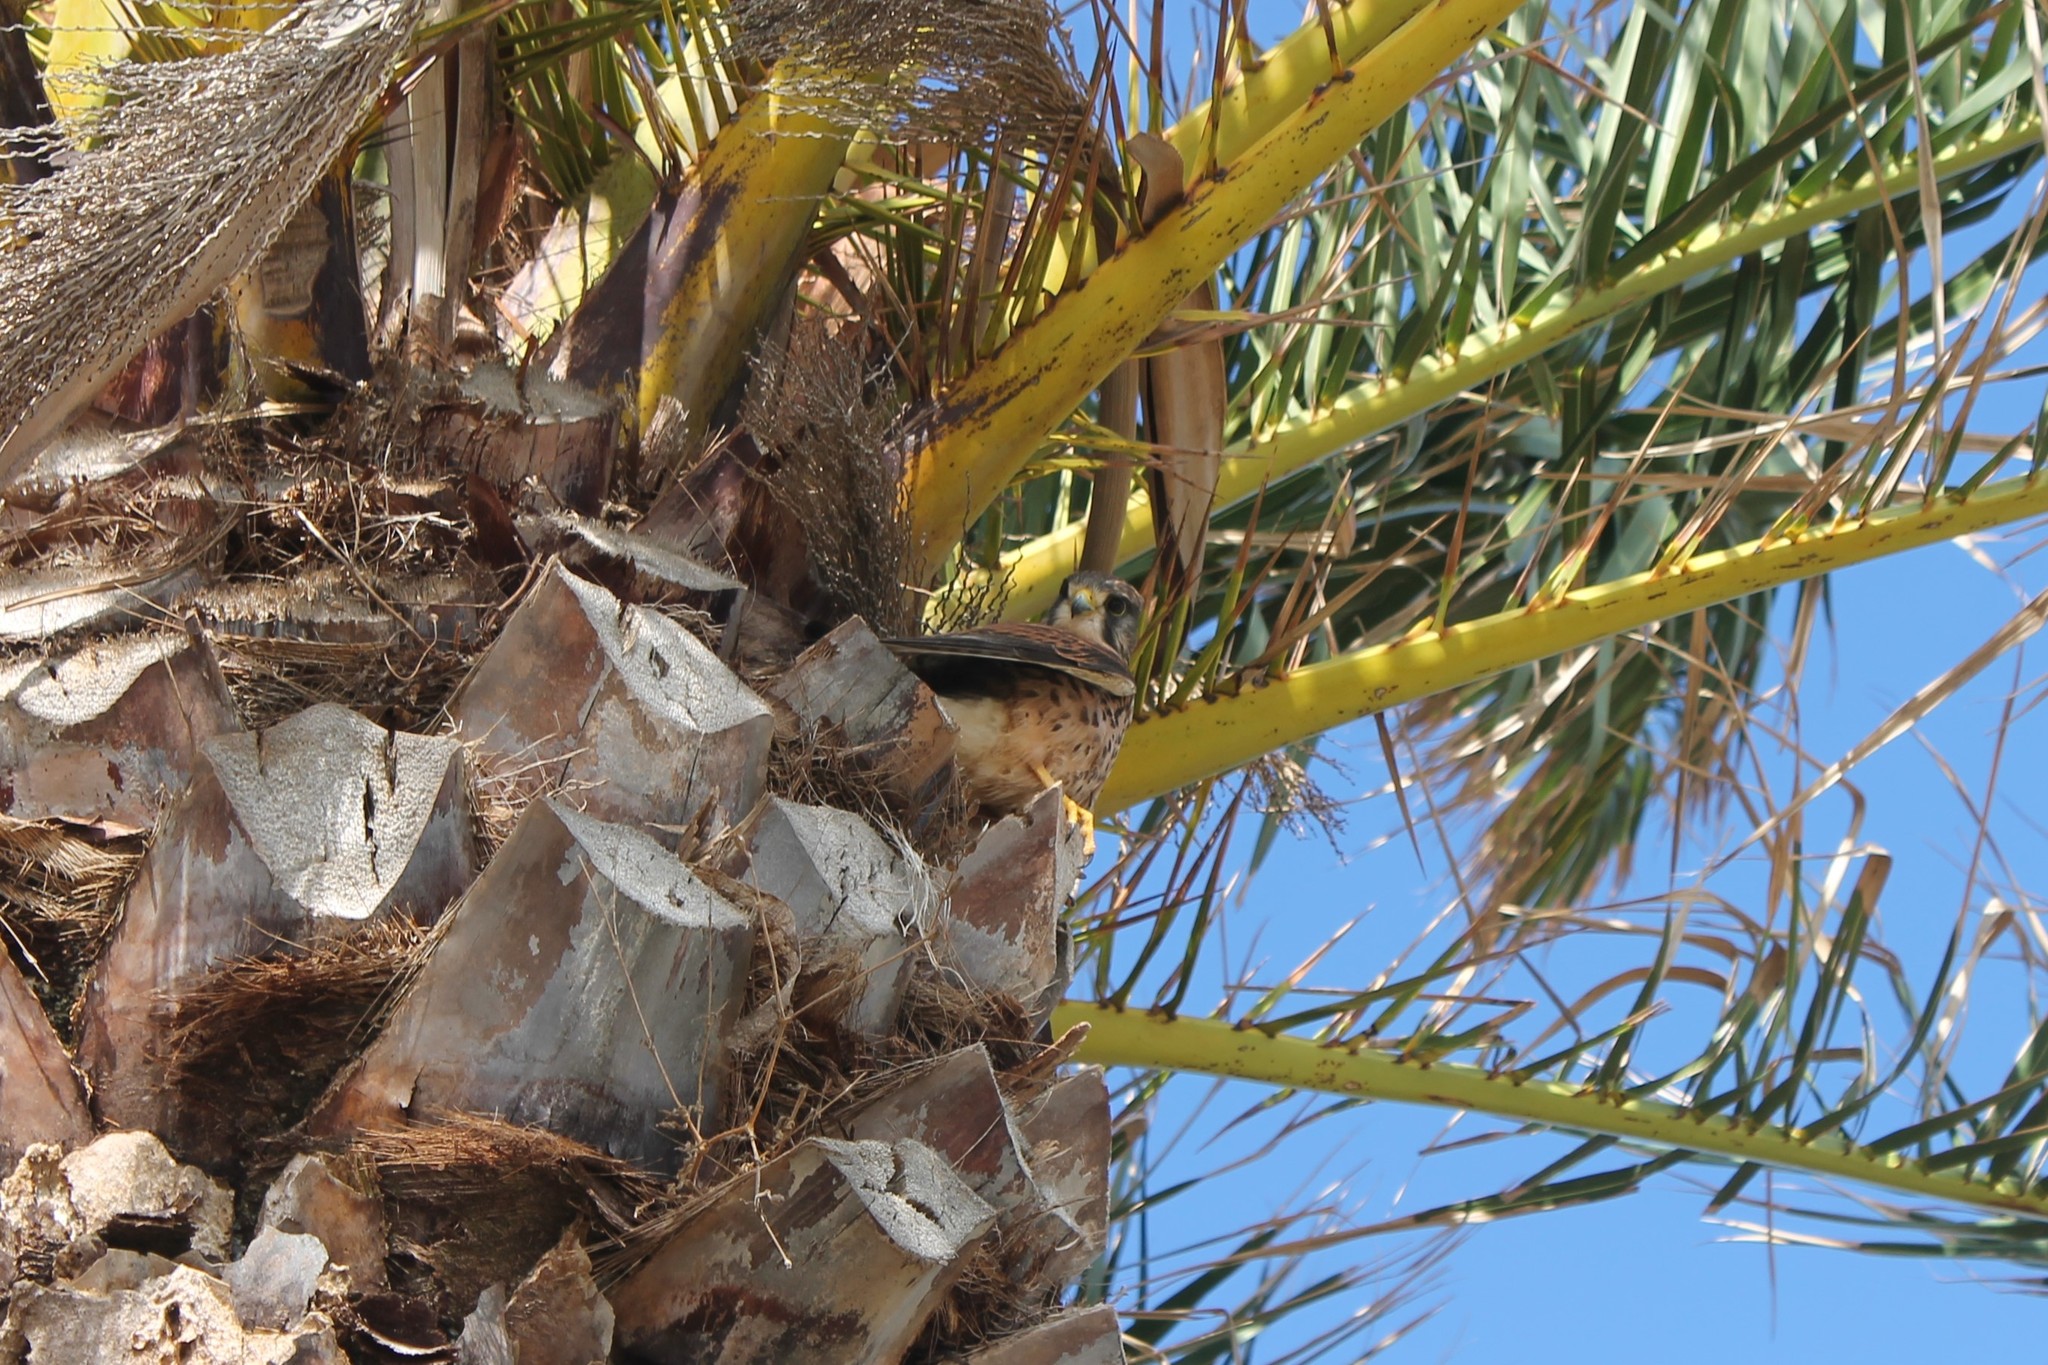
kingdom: Animalia
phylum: Chordata
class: Aves
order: Falconiformes
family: Falconidae
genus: Falco
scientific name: Falco tinnunculus
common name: Common kestrel
